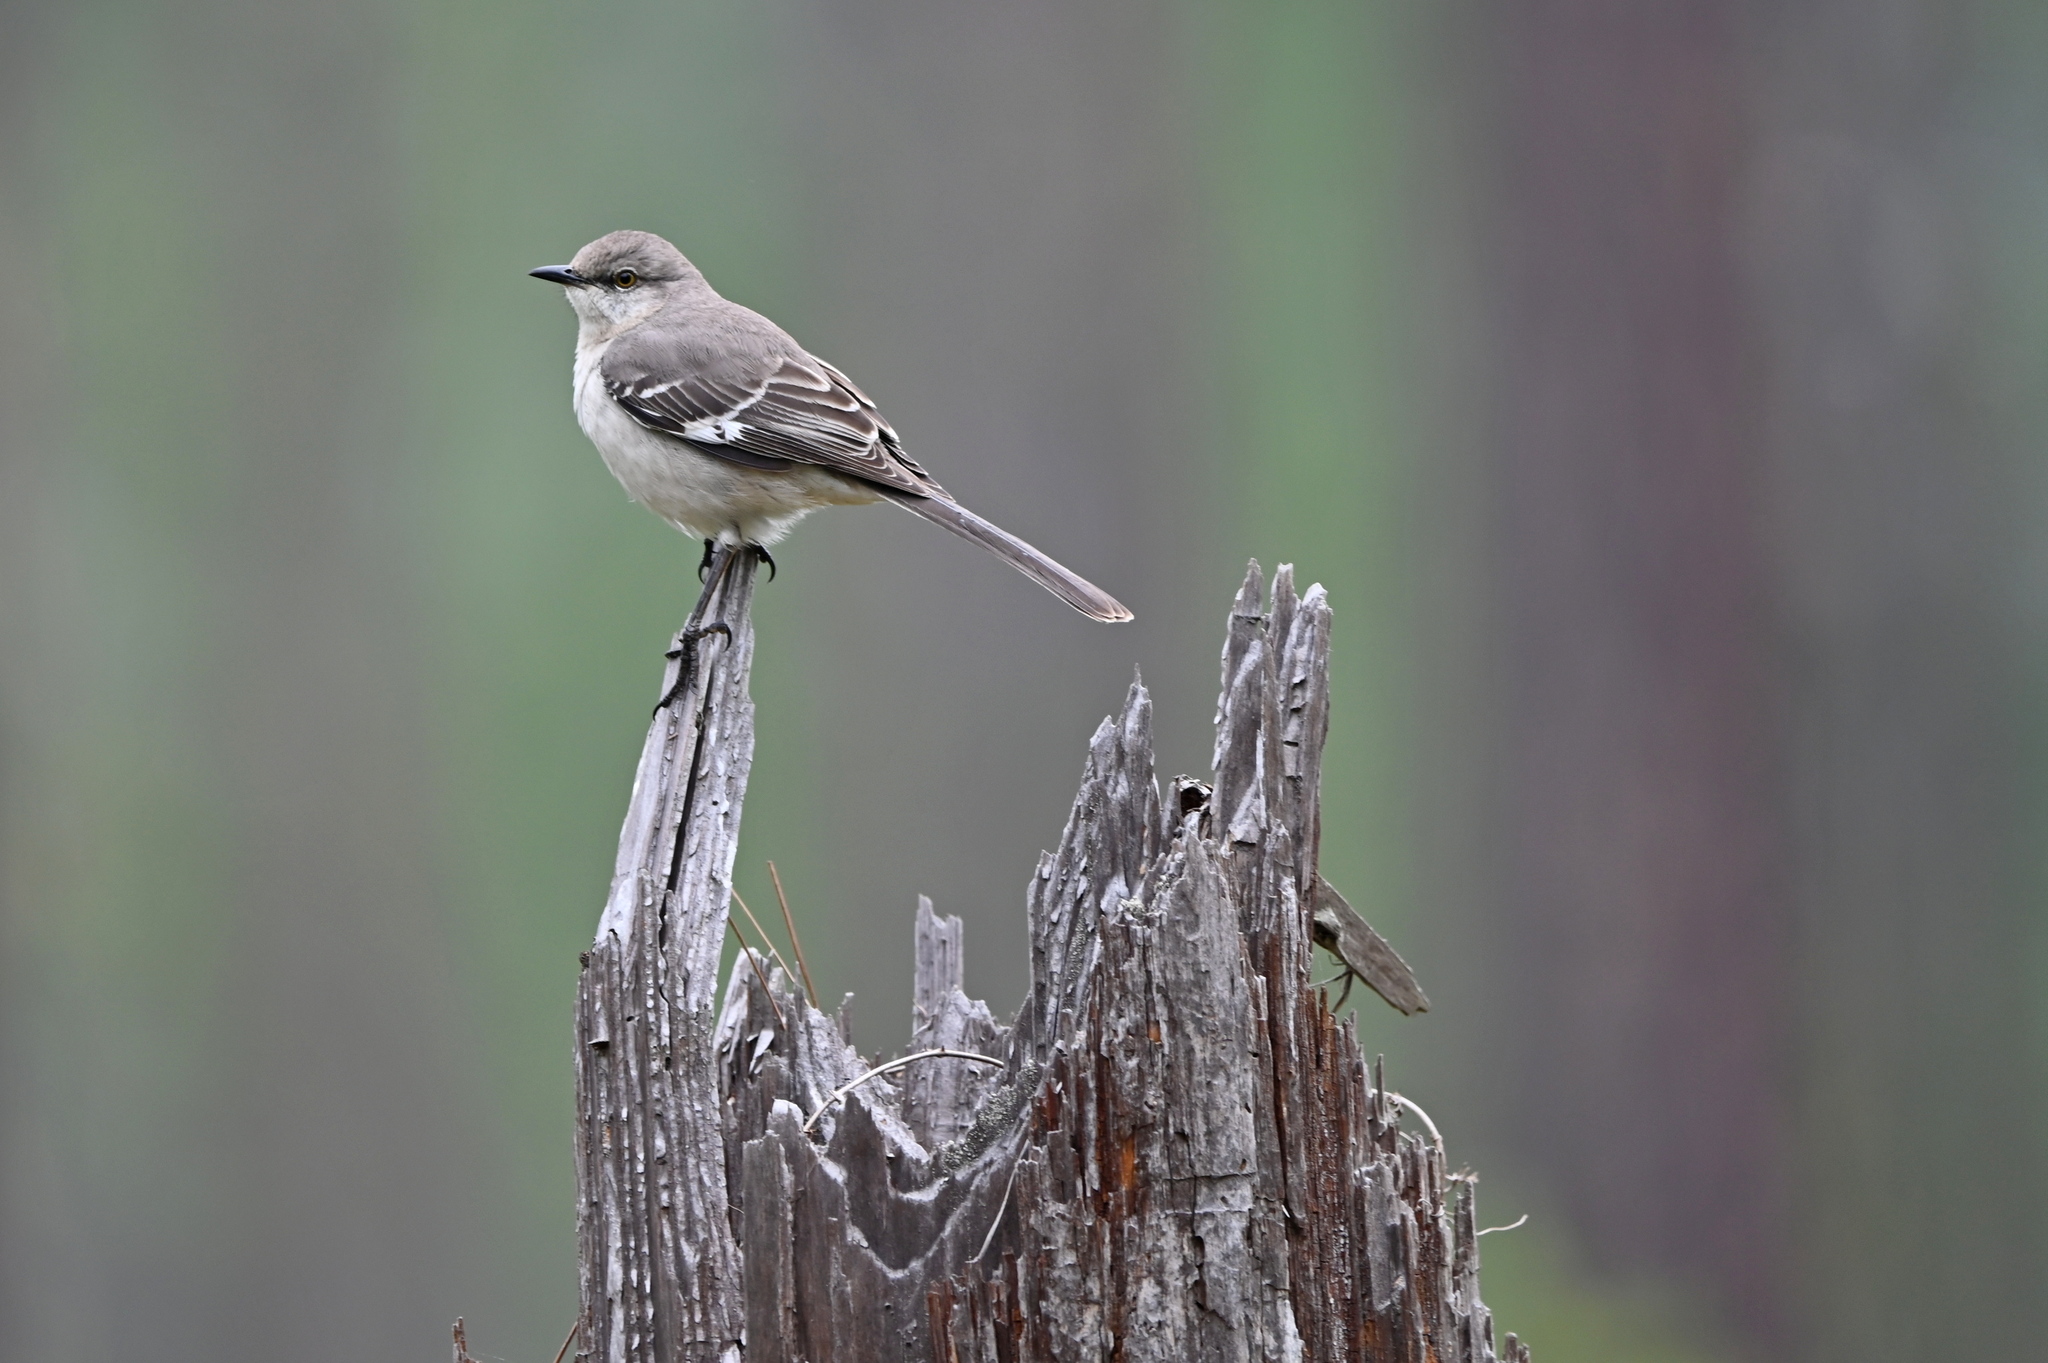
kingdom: Animalia
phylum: Chordata
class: Aves
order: Passeriformes
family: Mimidae
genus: Mimus
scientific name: Mimus polyglottos
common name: Northern mockingbird
